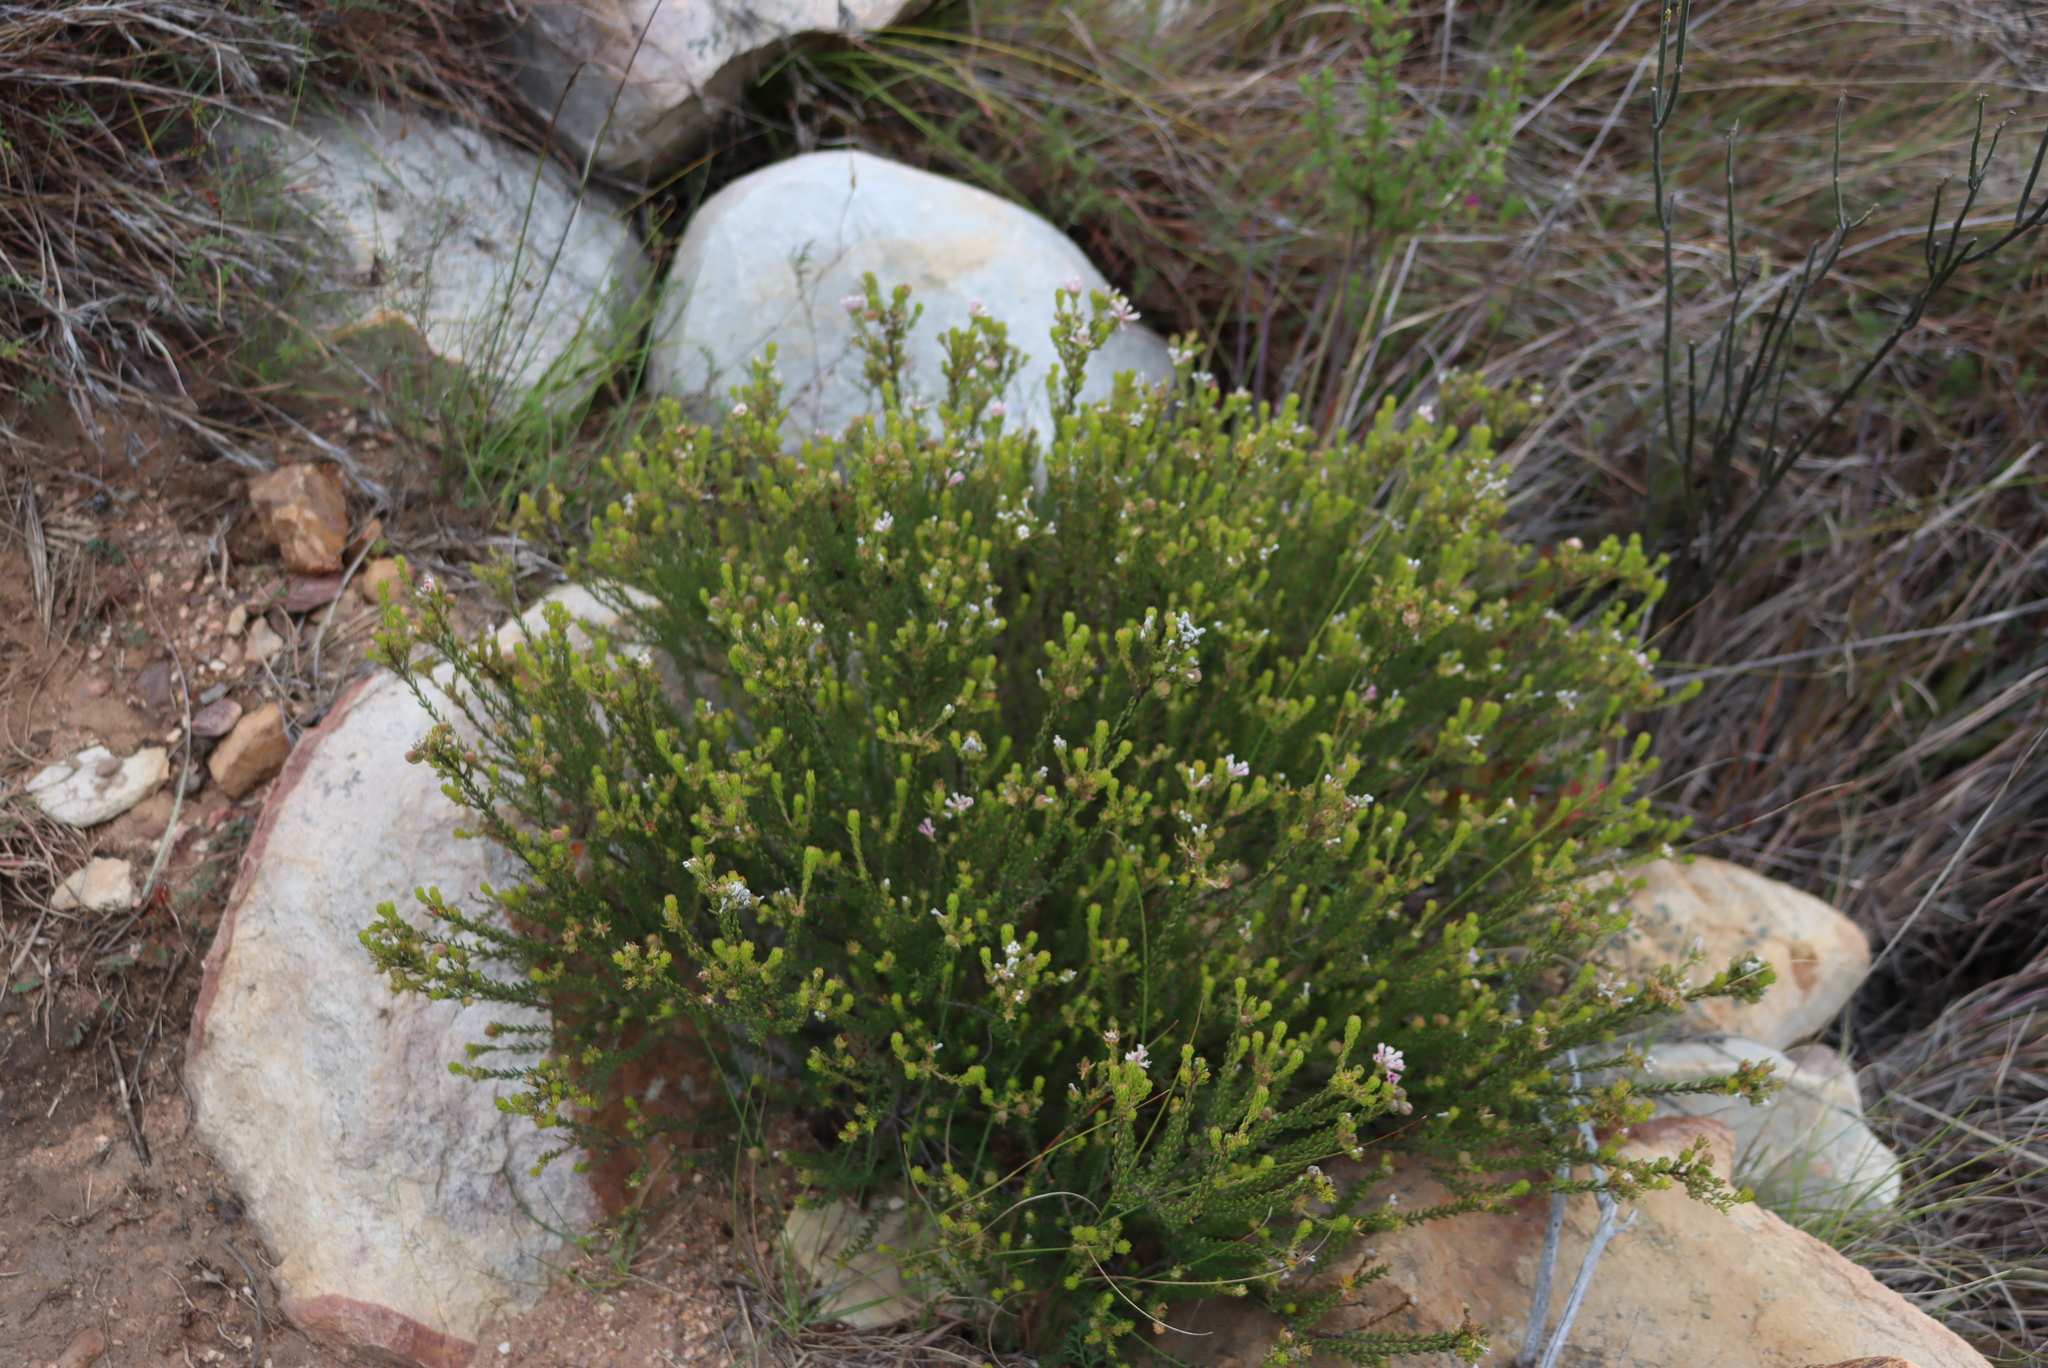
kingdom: Plantae
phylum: Tracheophyta
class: Magnoliopsida
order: Rosales
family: Rhamnaceae
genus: Phylica
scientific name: Phylica lachneaeoides
